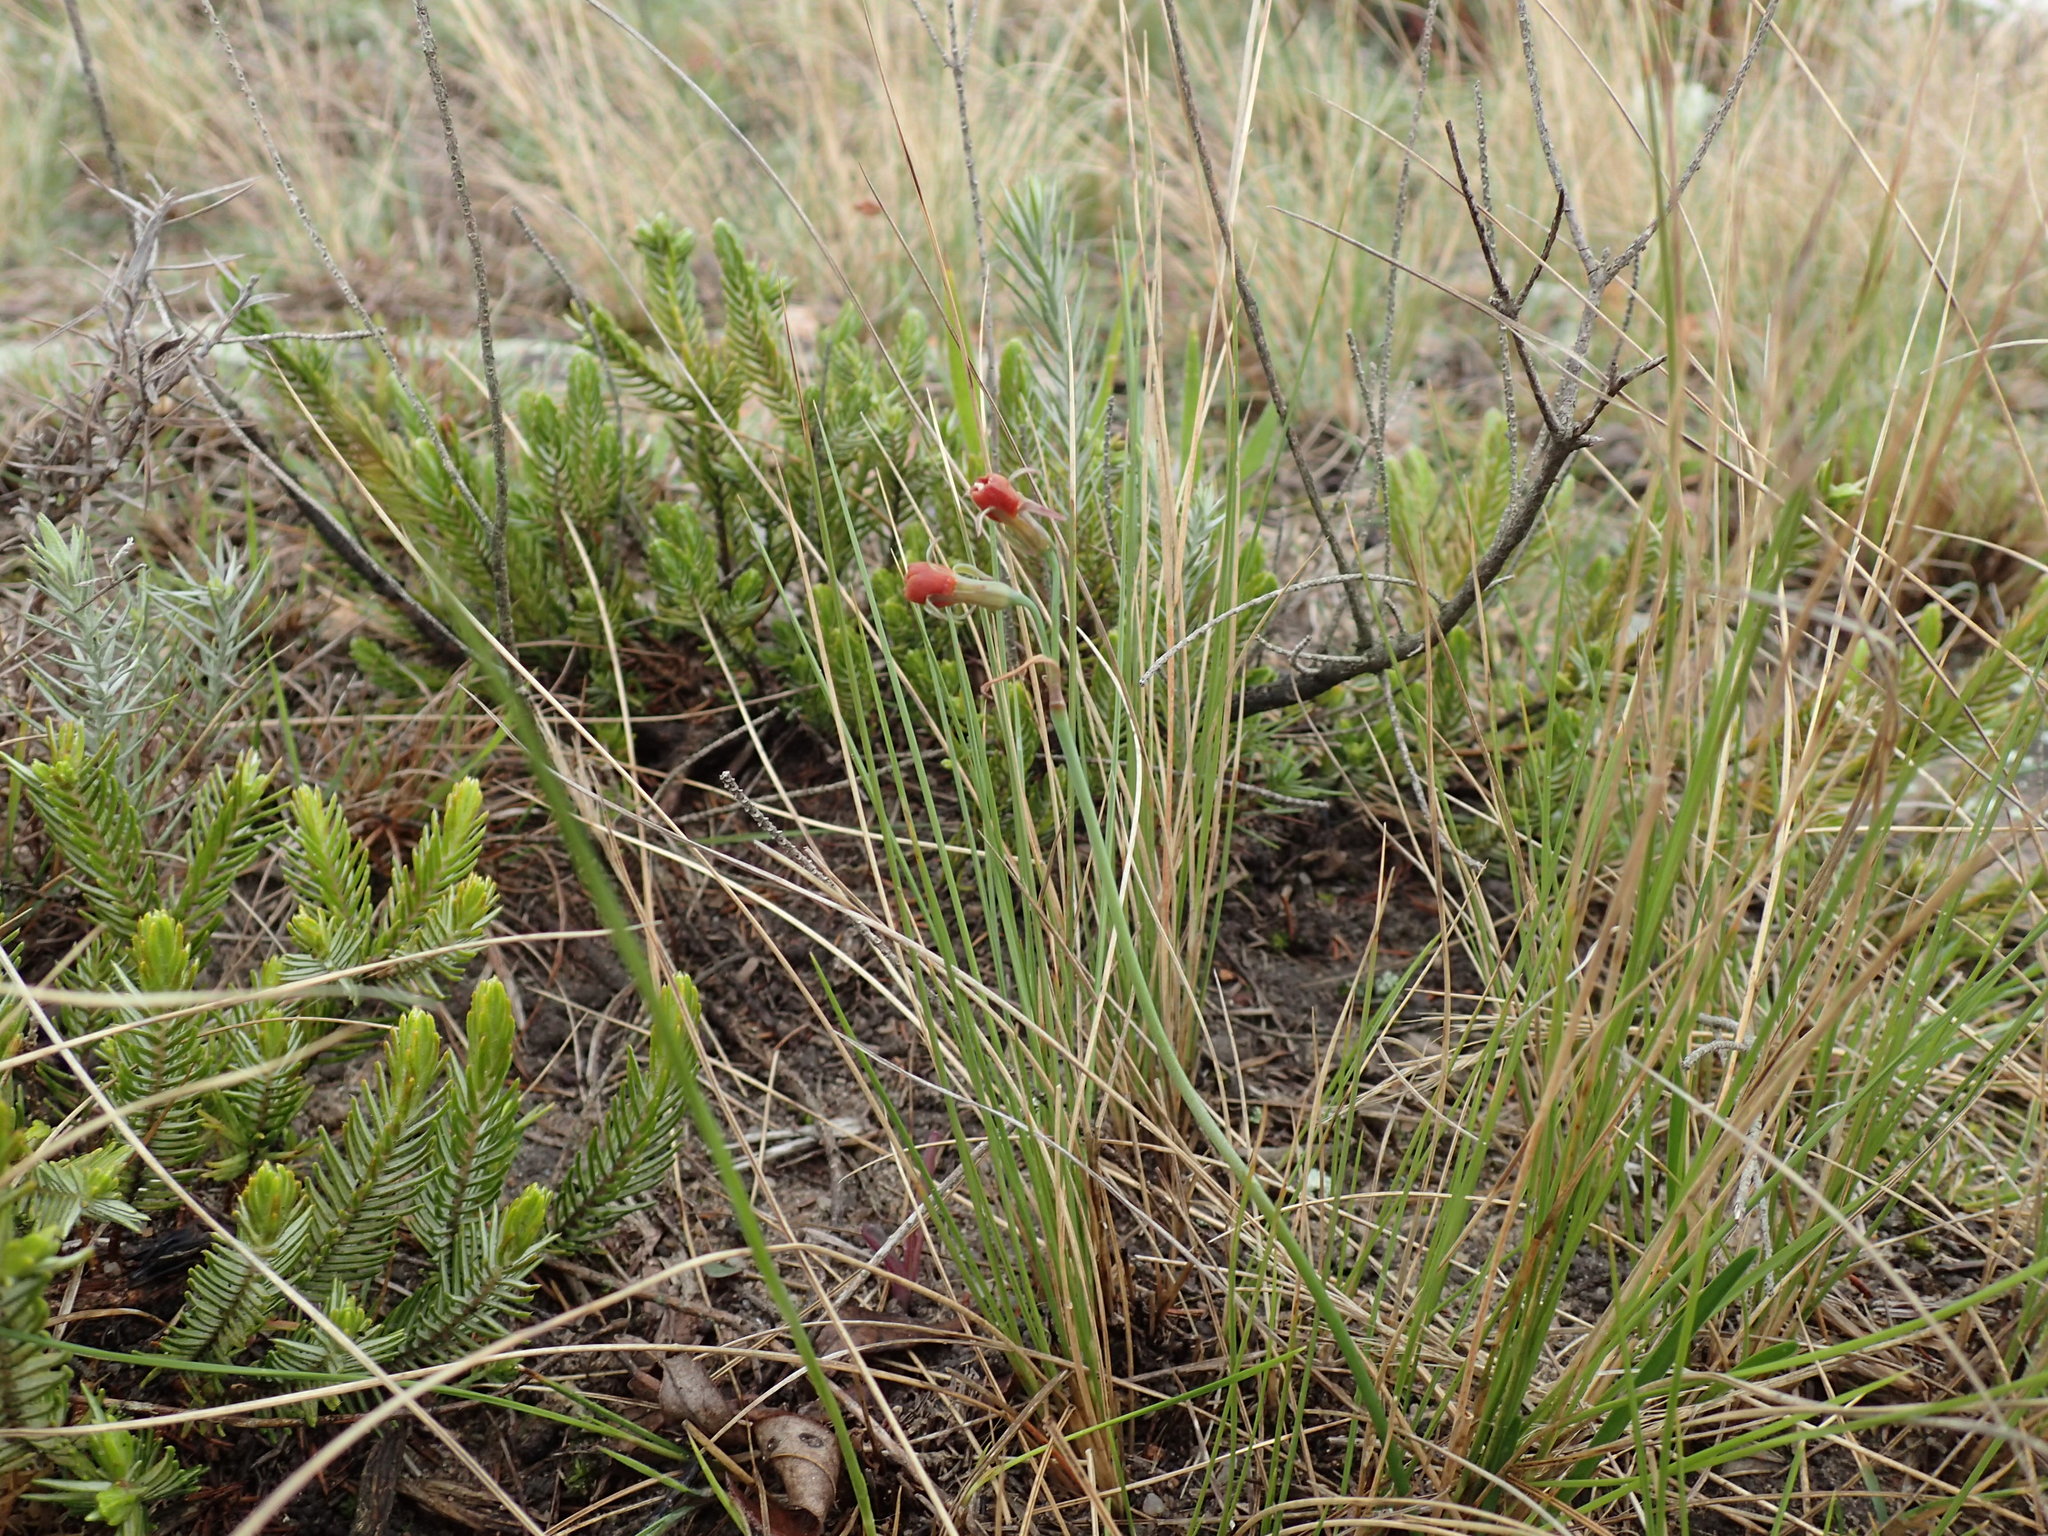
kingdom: Plantae
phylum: Tracheophyta
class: Liliopsida
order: Asparagales
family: Amaryllidaceae
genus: Tulbaghia
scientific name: Tulbaghia acutiloba
